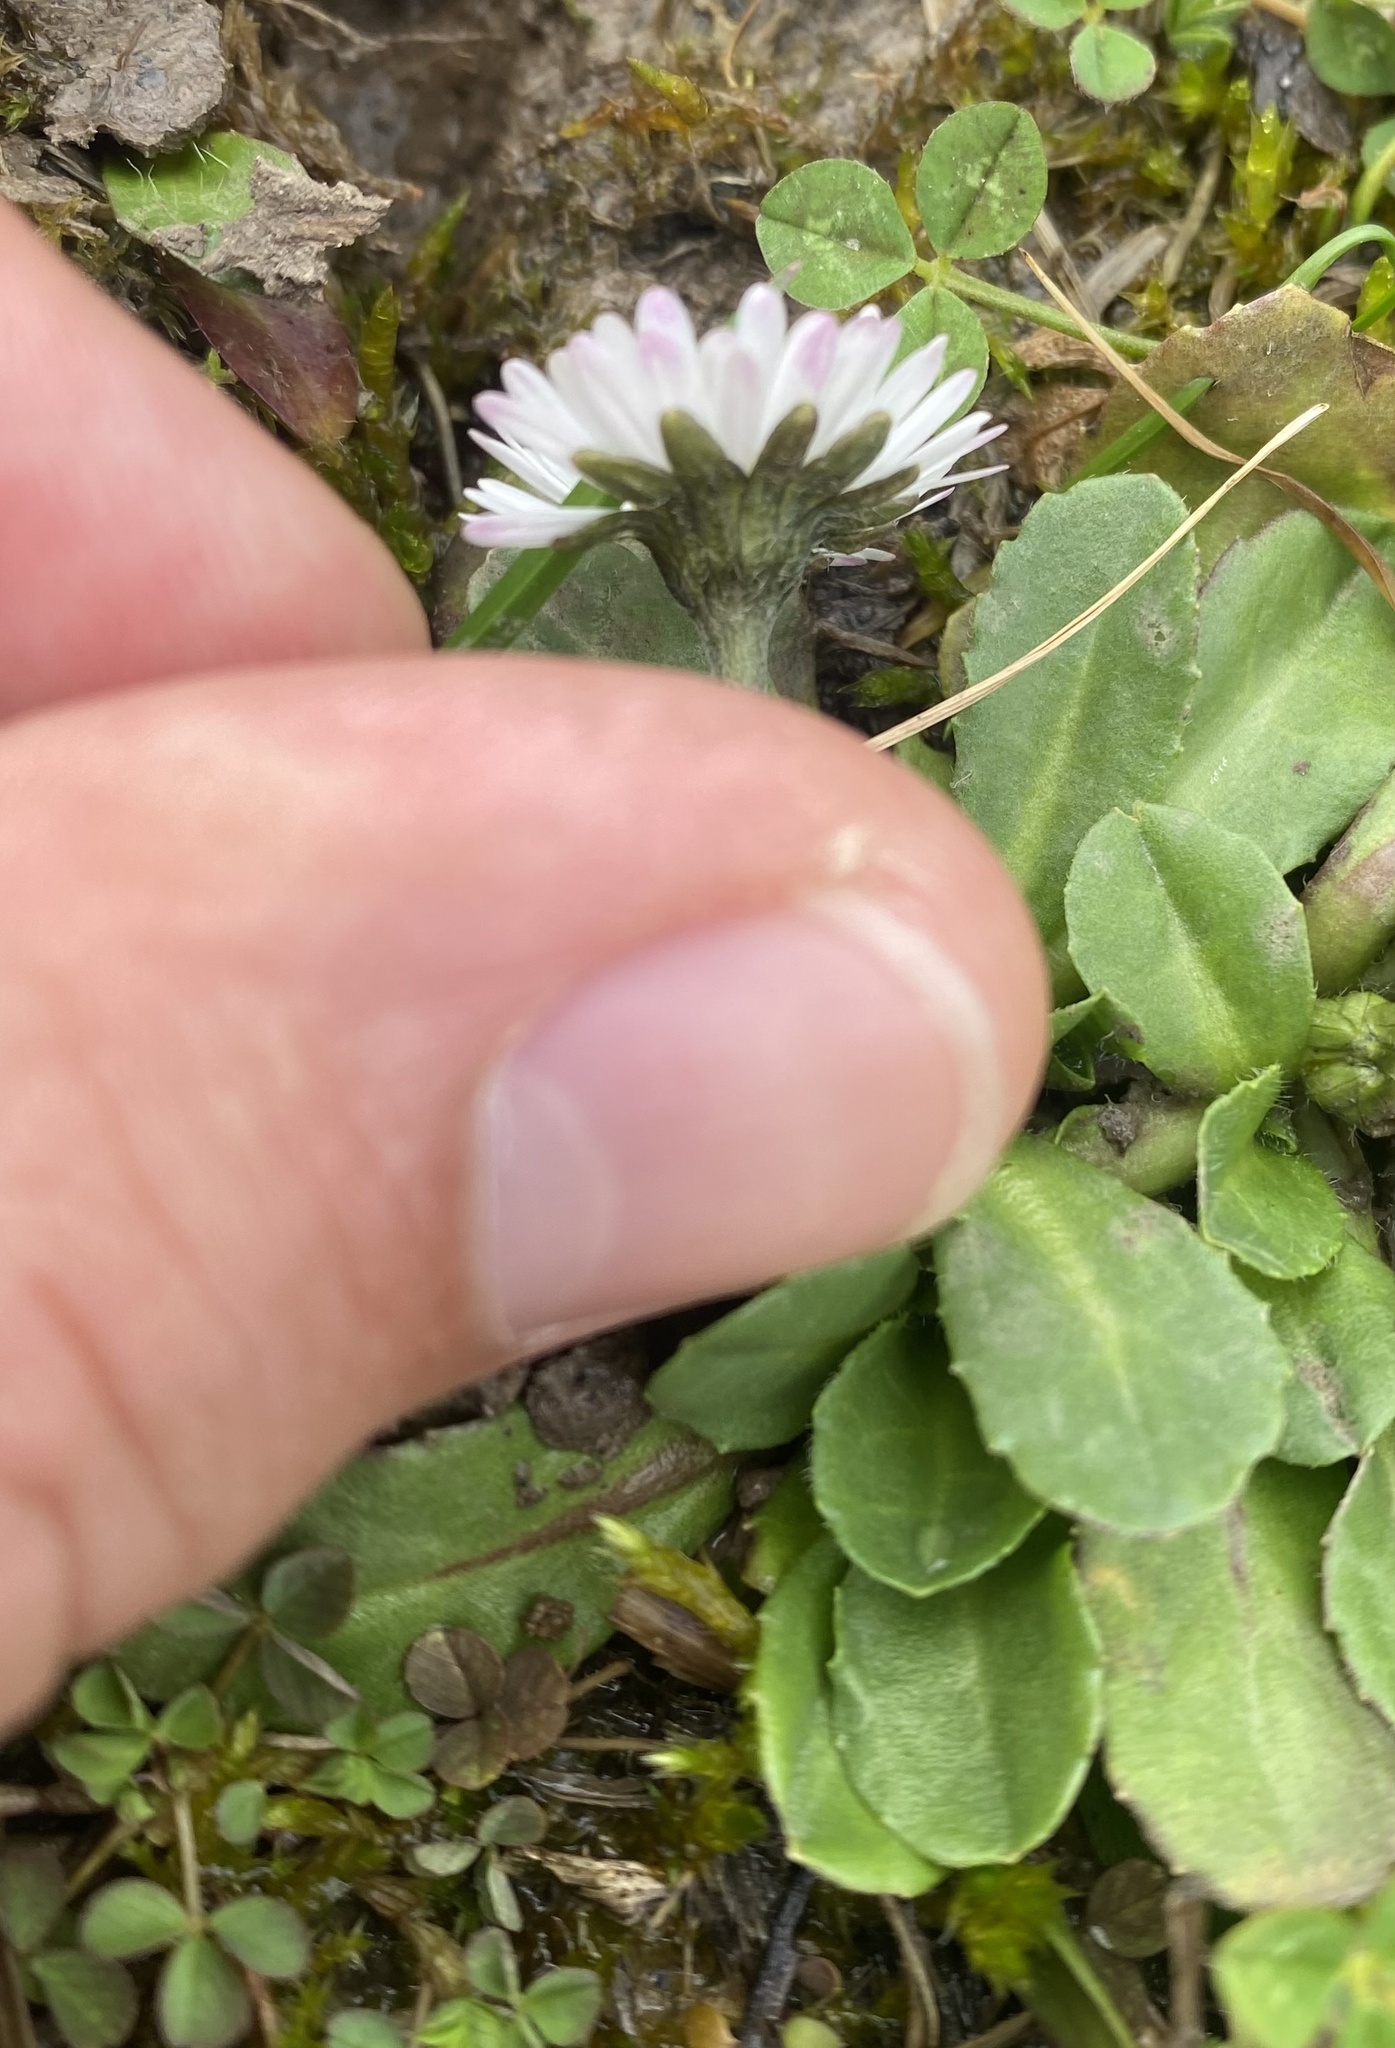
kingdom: Plantae
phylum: Tracheophyta
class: Magnoliopsida
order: Asterales
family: Asteraceae
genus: Bellis
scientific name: Bellis perennis
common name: Lawndaisy
